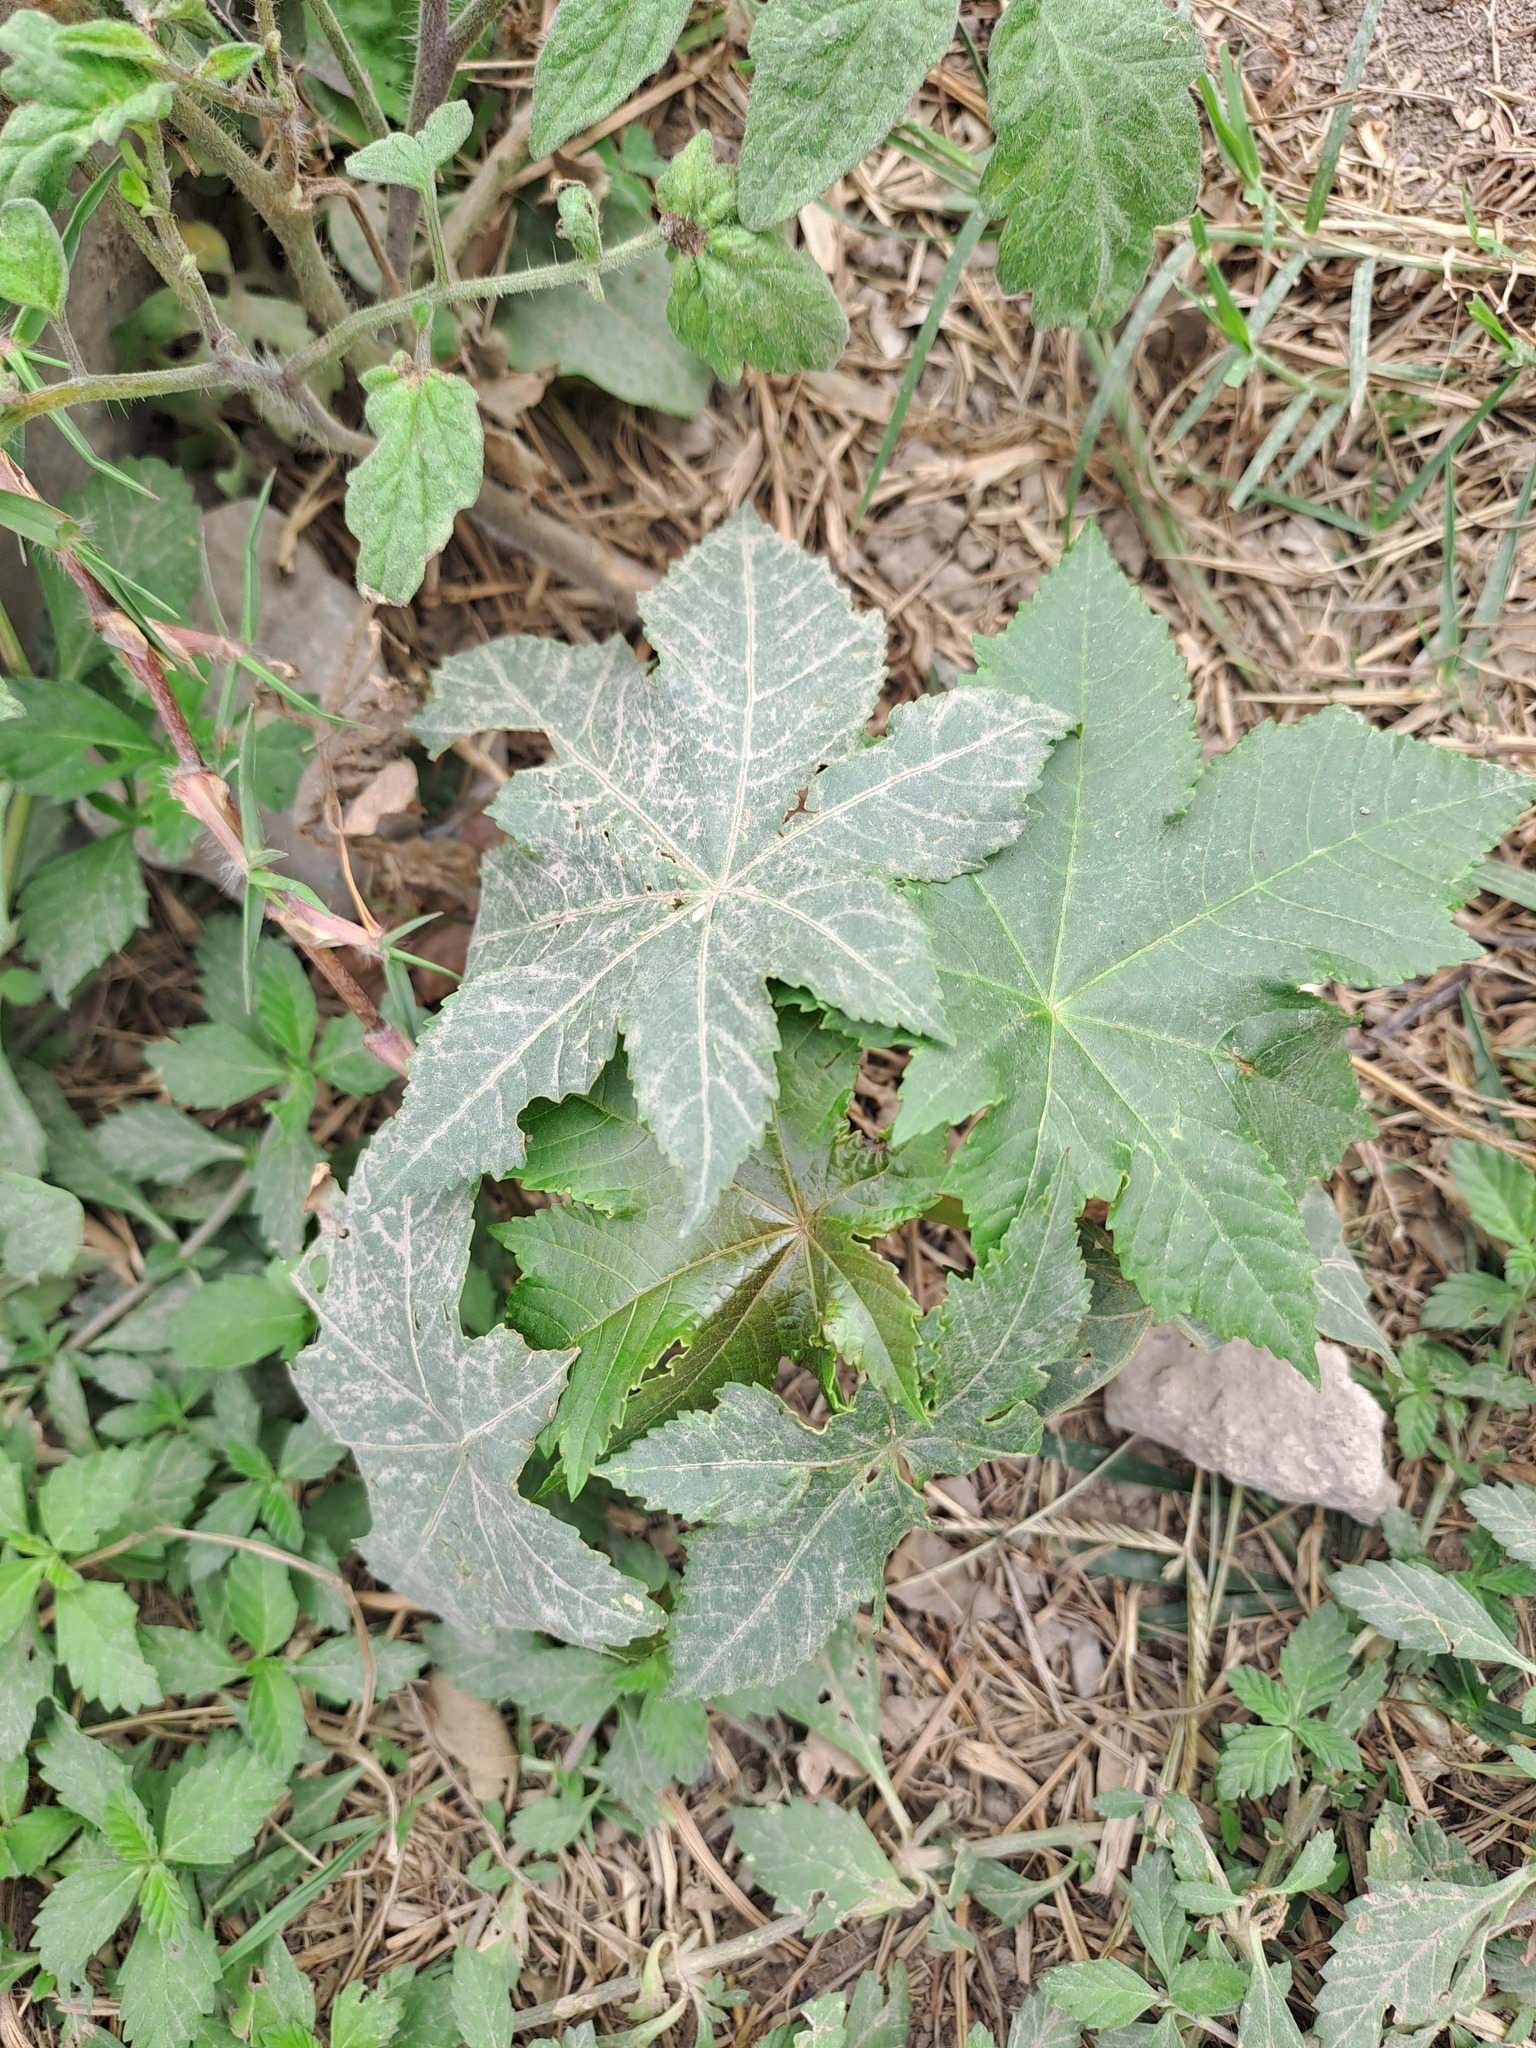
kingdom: Plantae
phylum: Tracheophyta
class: Magnoliopsida
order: Malpighiales
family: Euphorbiaceae
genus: Ricinus
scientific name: Ricinus communis
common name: Castor-oil-plant
